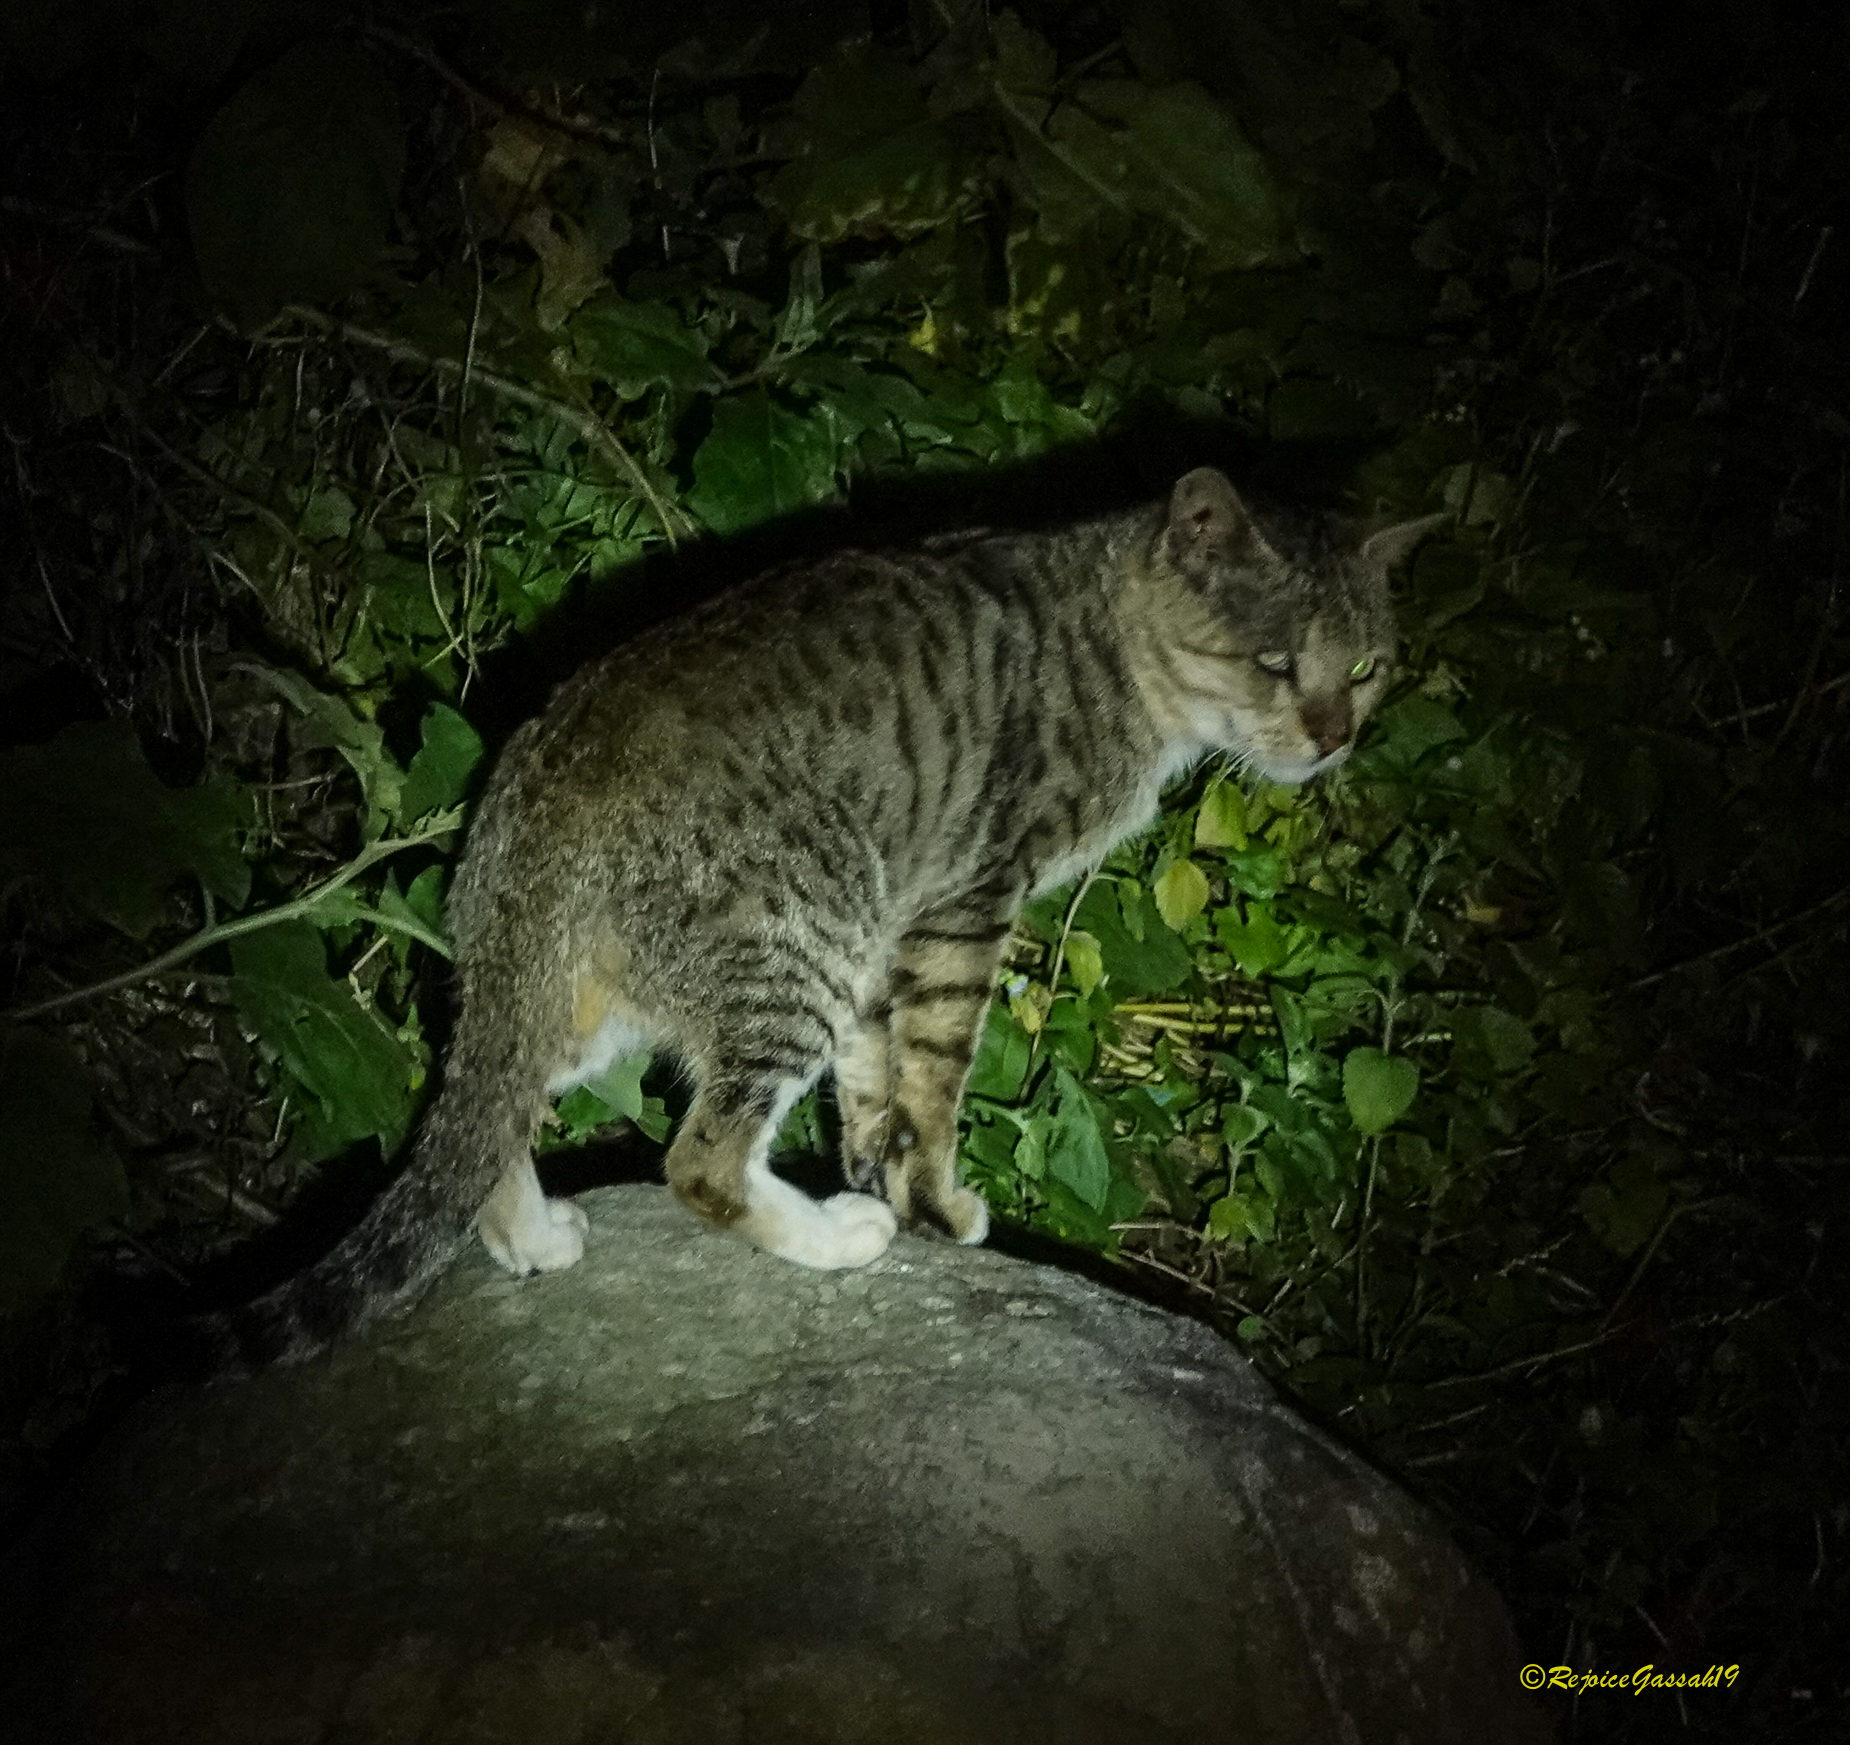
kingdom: Animalia
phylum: Chordata
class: Mammalia
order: Carnivora
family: Felidae
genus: Felis
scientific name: Felis catus
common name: Domestic cat
